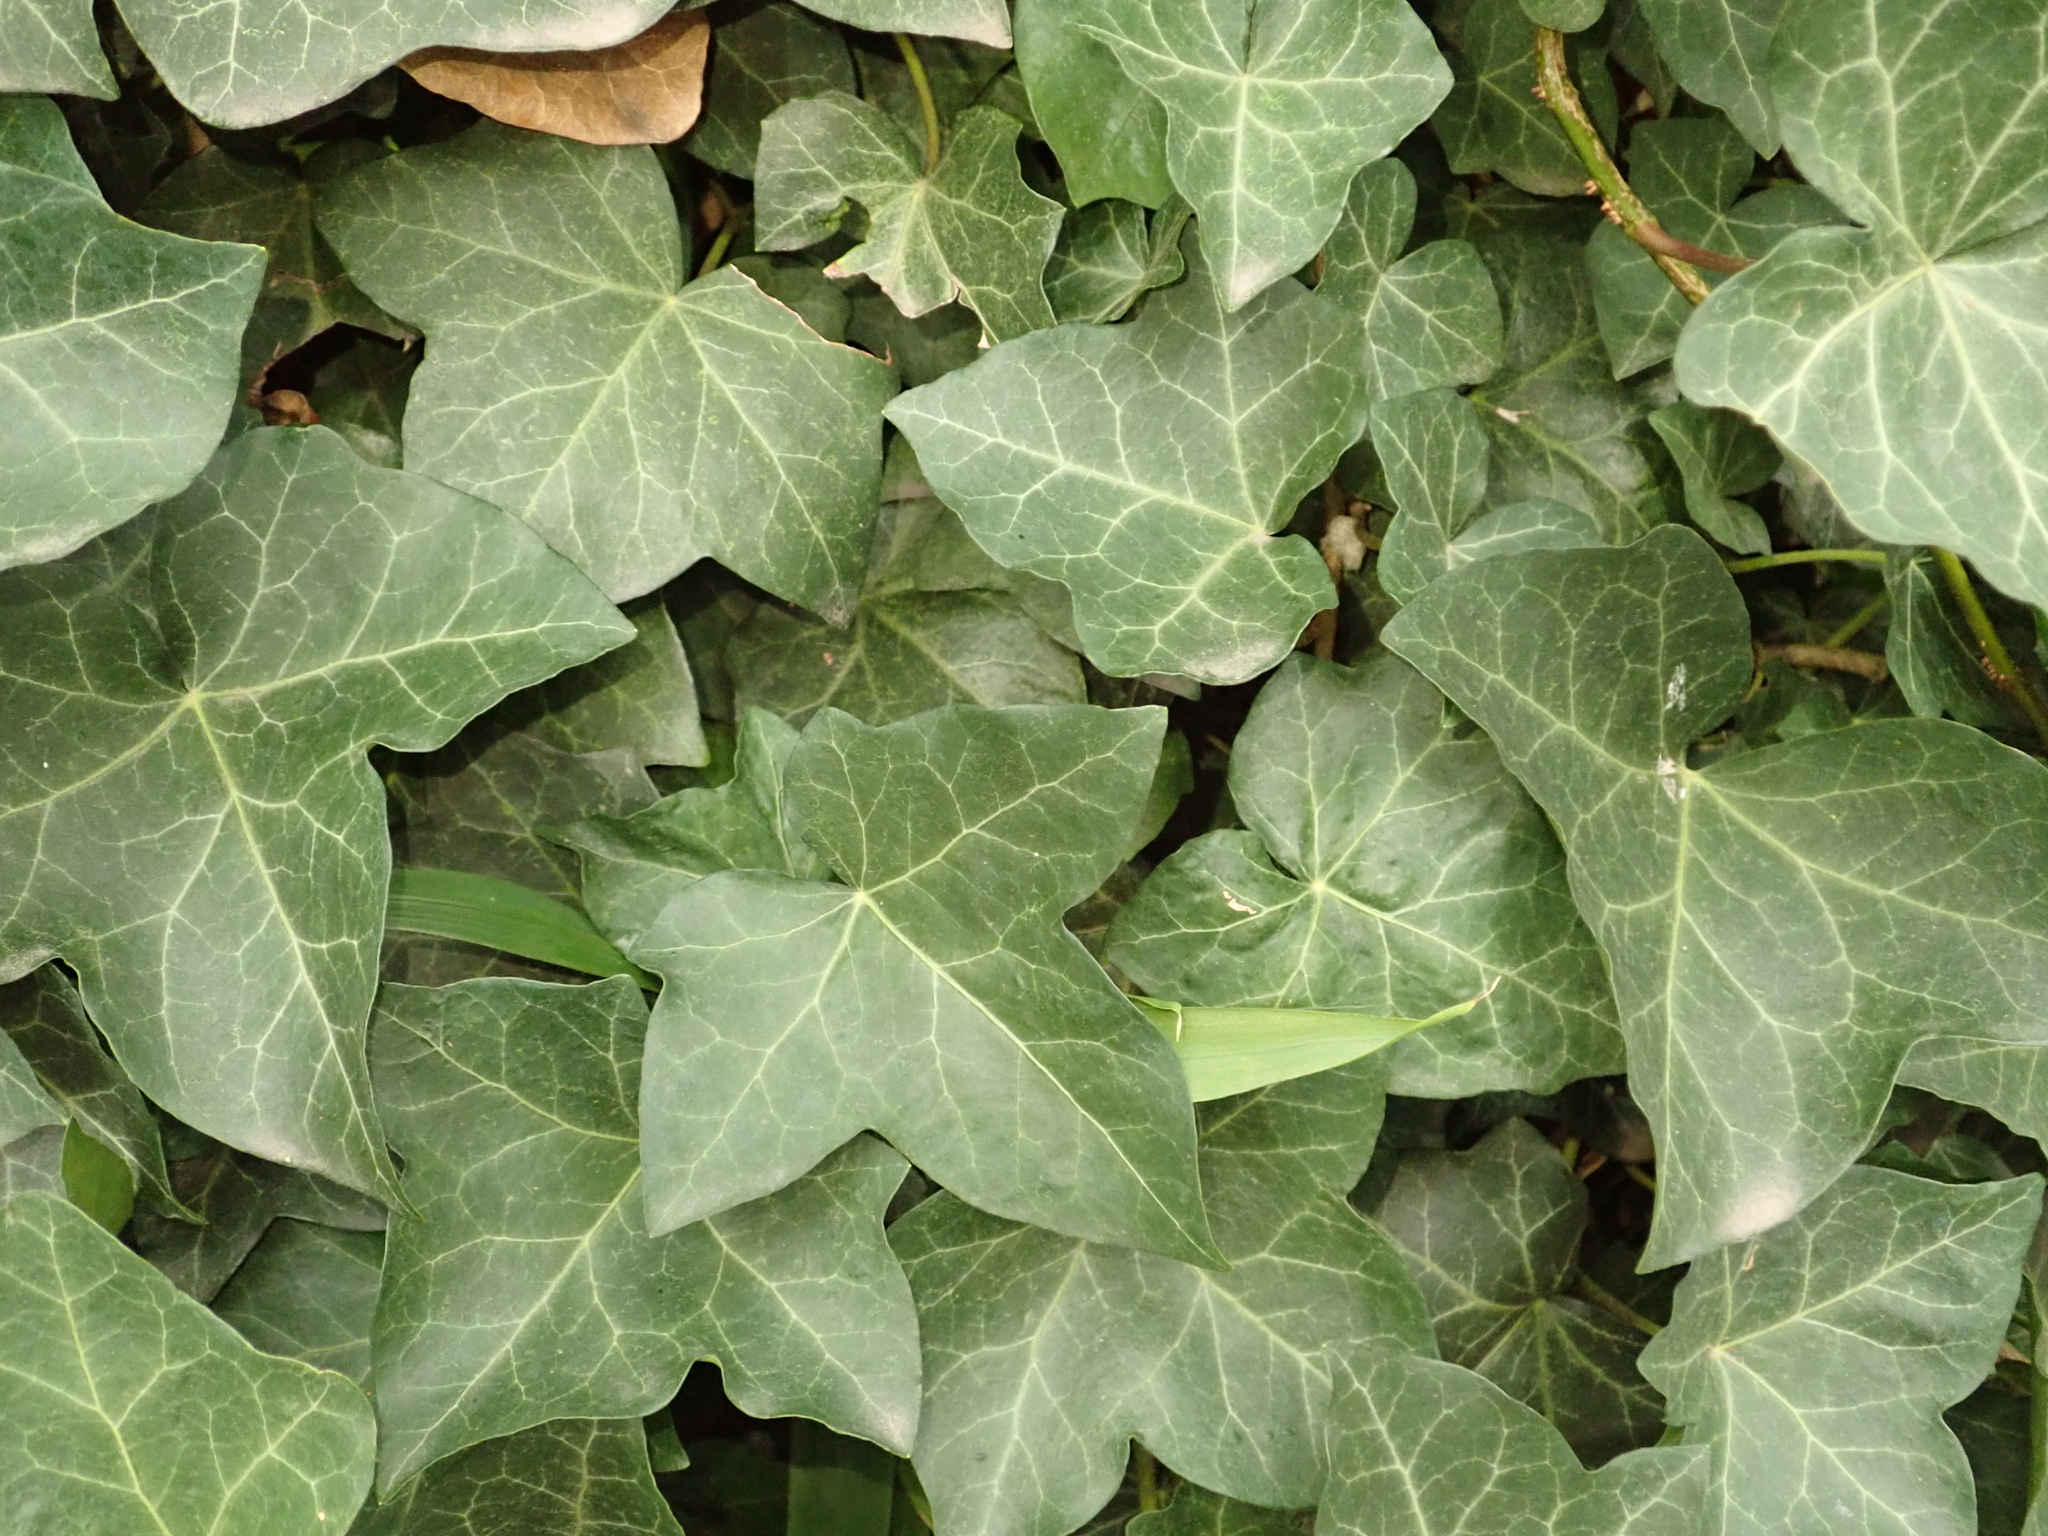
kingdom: Plantae
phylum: Tracheophyta
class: Magnoliopsida
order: Apiales
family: Araliaceae
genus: Hedera
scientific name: Hedera helix
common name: Ivy
